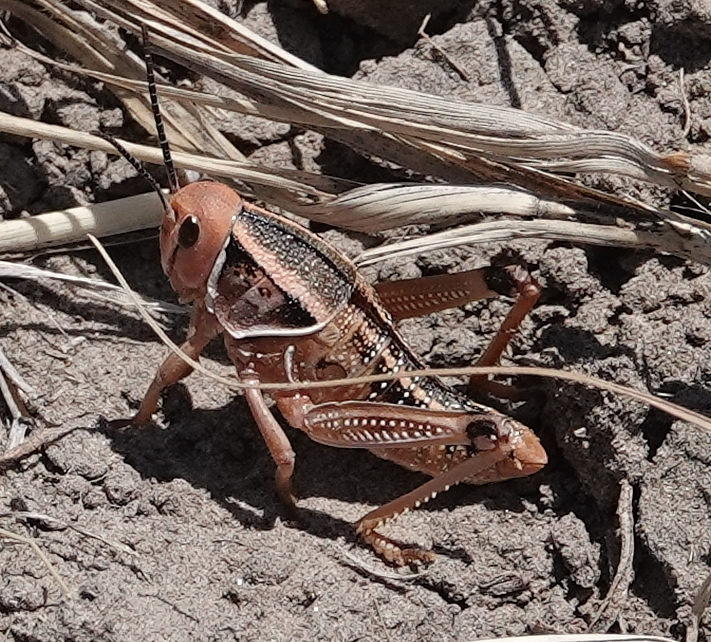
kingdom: Animalia
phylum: Arthropoda
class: Insecta
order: Orthoptera
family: Romaleidae
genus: Brachystola
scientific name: Brachystola magna
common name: Plains lubber grasshopper
